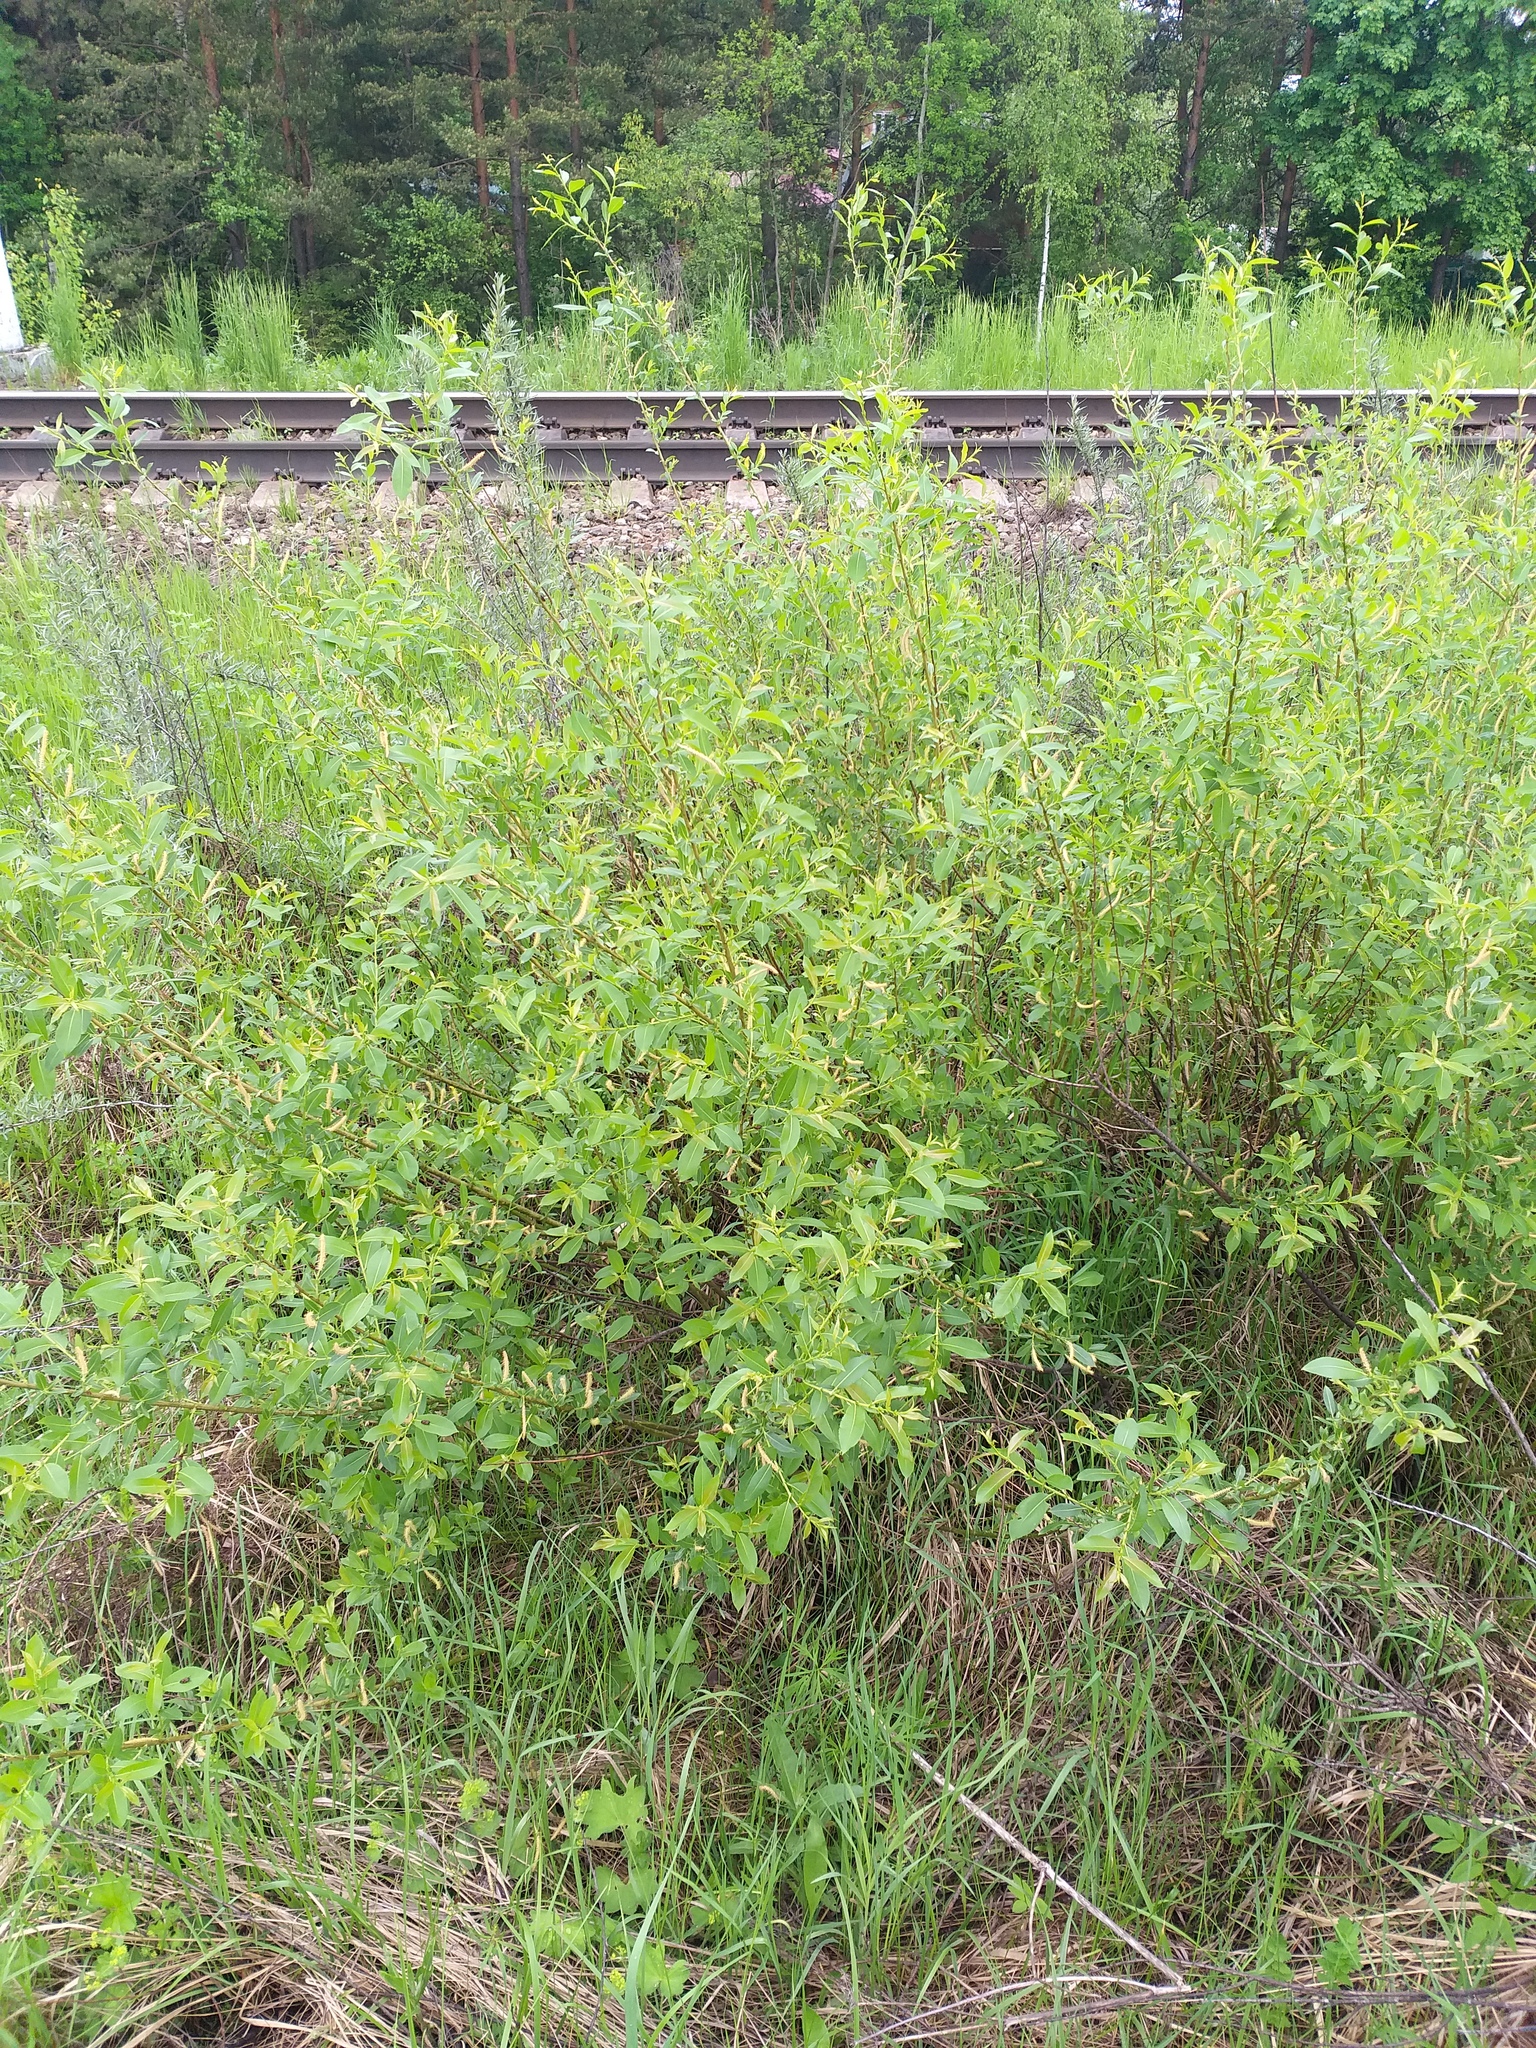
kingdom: Plantae
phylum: Tracheophyta
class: Magnoliopsida
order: Malpighiales
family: Salicaceae
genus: Salix
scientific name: Salix triandra
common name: Almond willow
